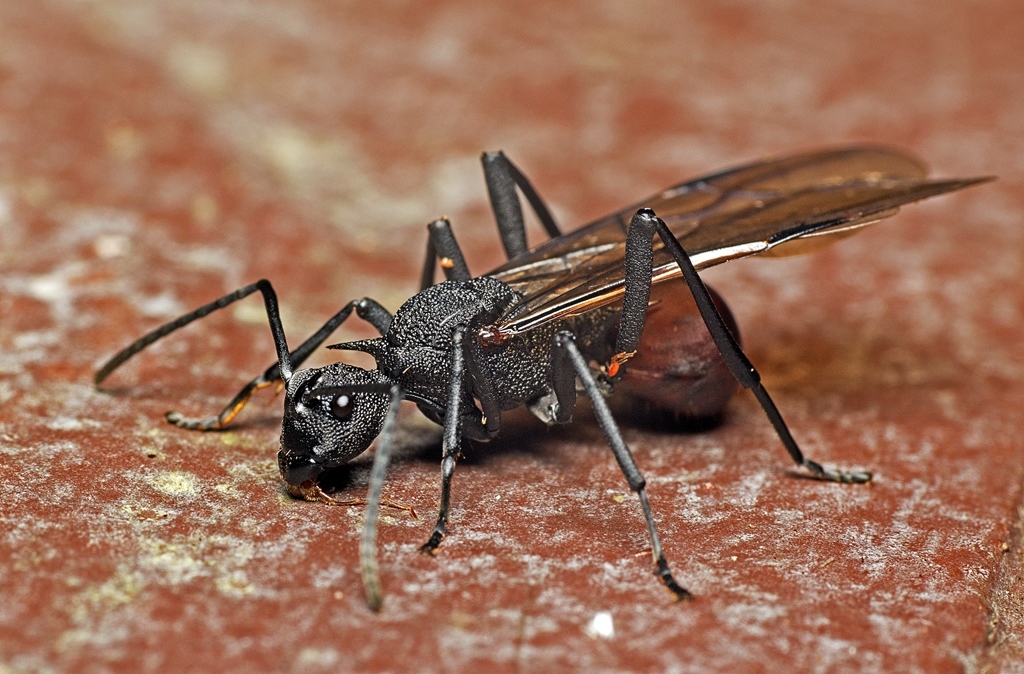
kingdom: Animalia
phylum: Arthropoda
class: Insecta
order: Hymenoptera
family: Formicidae
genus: Polyrhachis
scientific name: Polyrhachis armata
